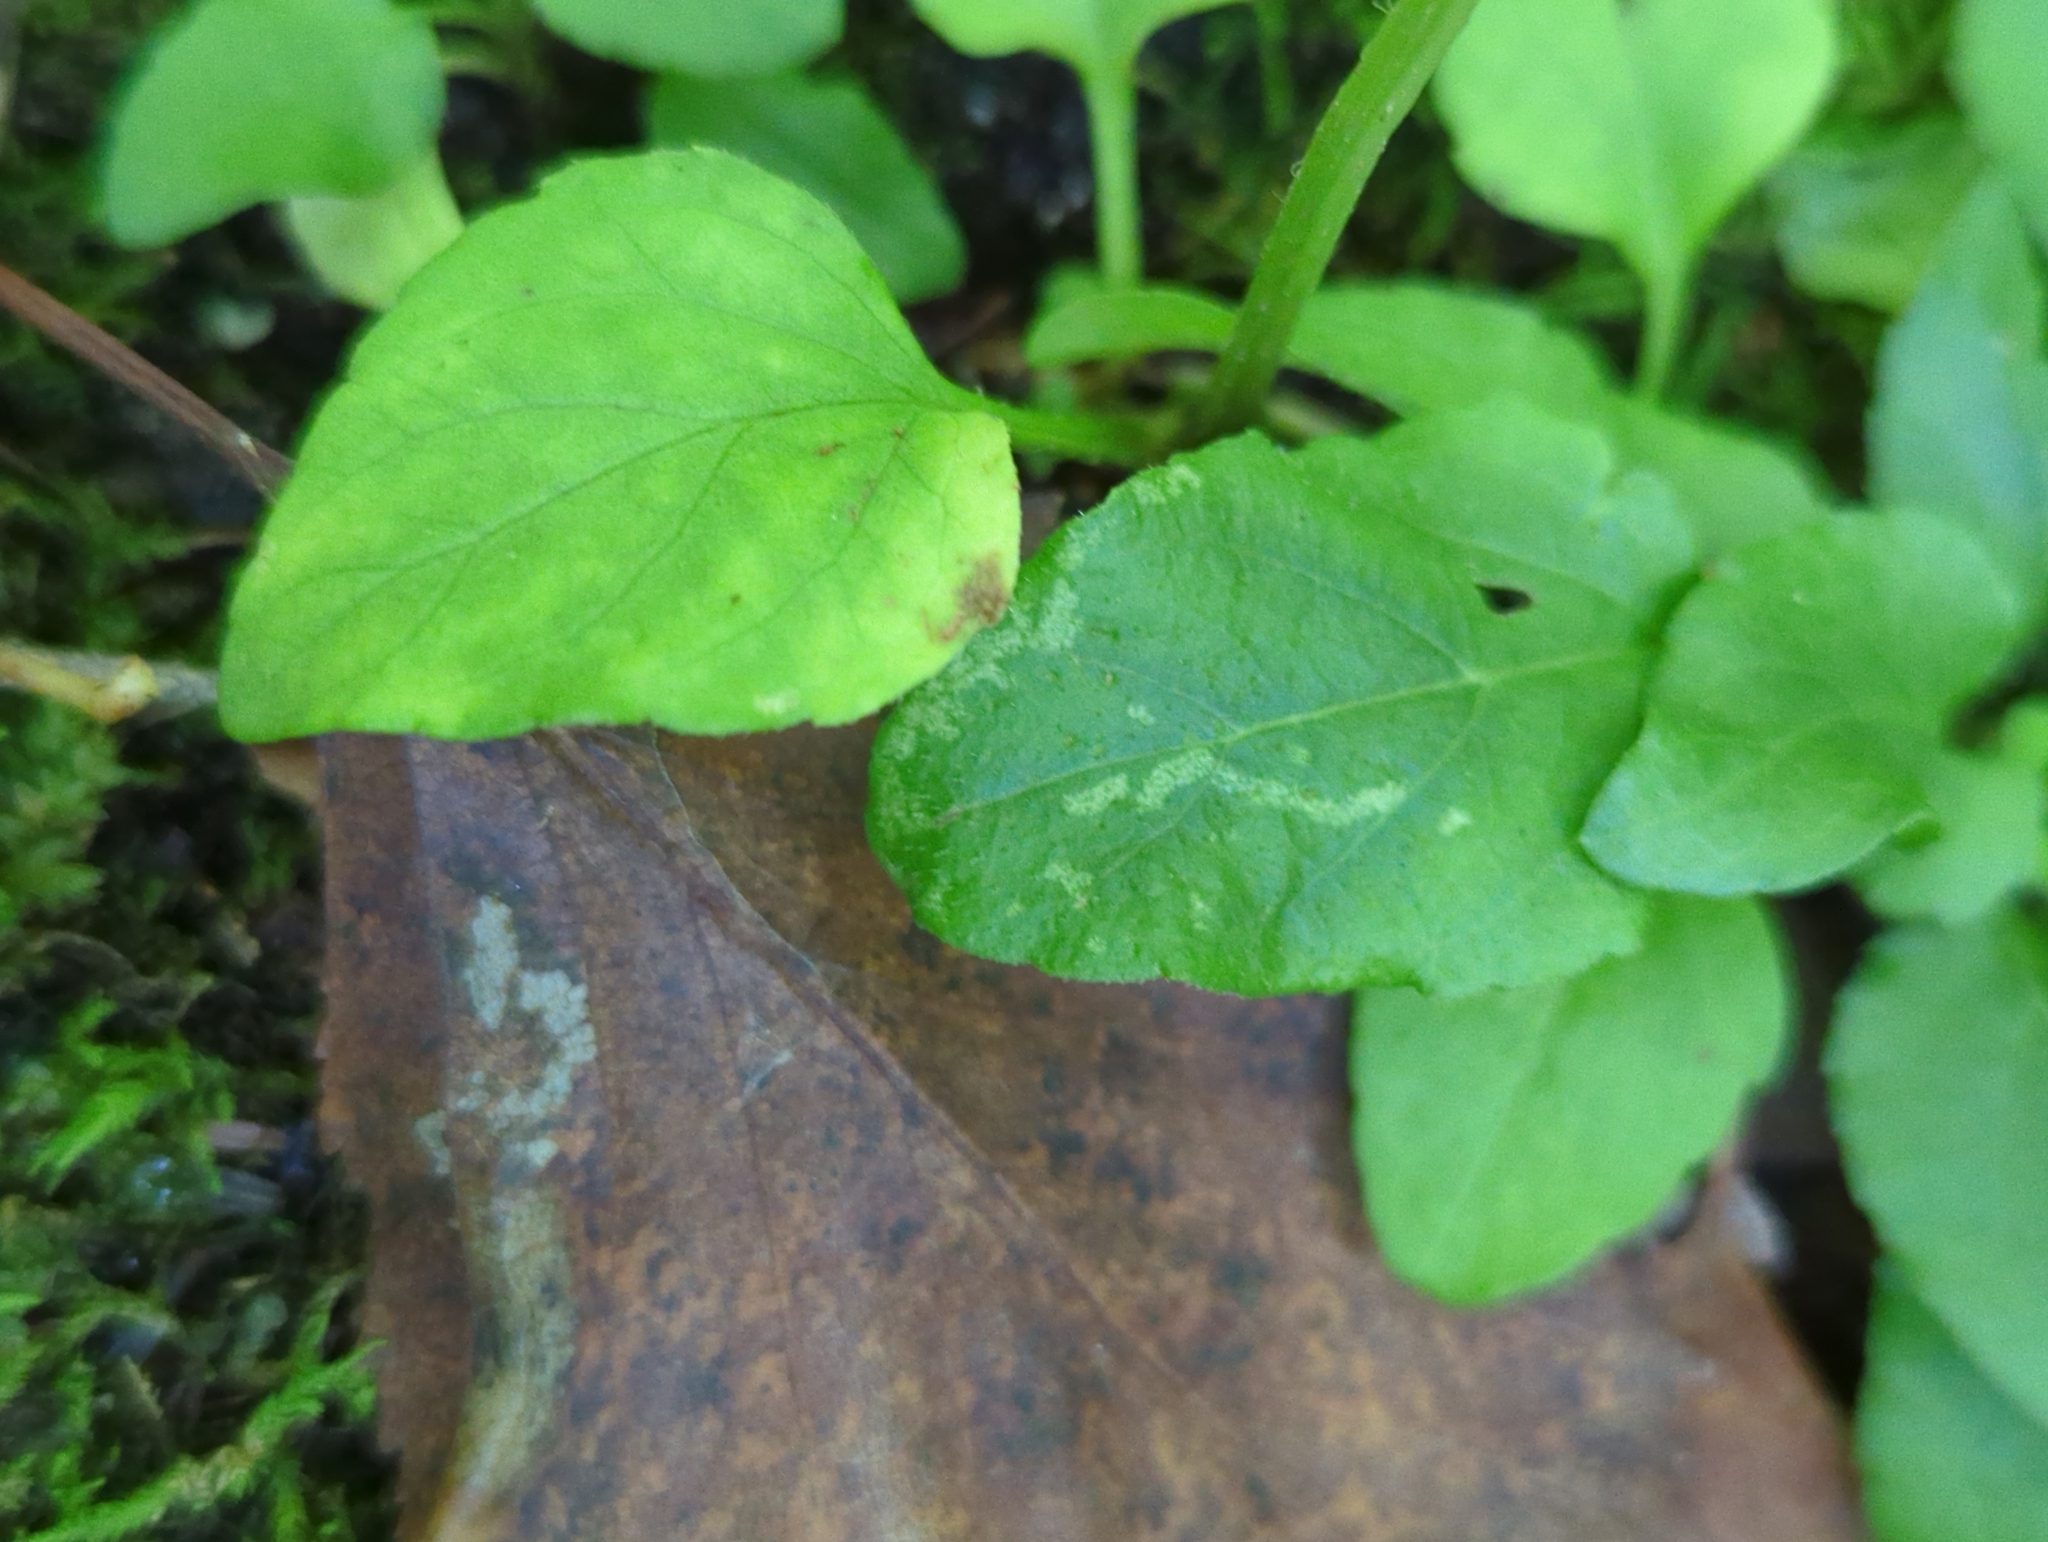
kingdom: Plantae
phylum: Tracheophyta
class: Magnoliopsida
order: Lamiales
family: Lamiaceae
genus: Prunella
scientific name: Prunella vulgaris
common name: Heal-all
